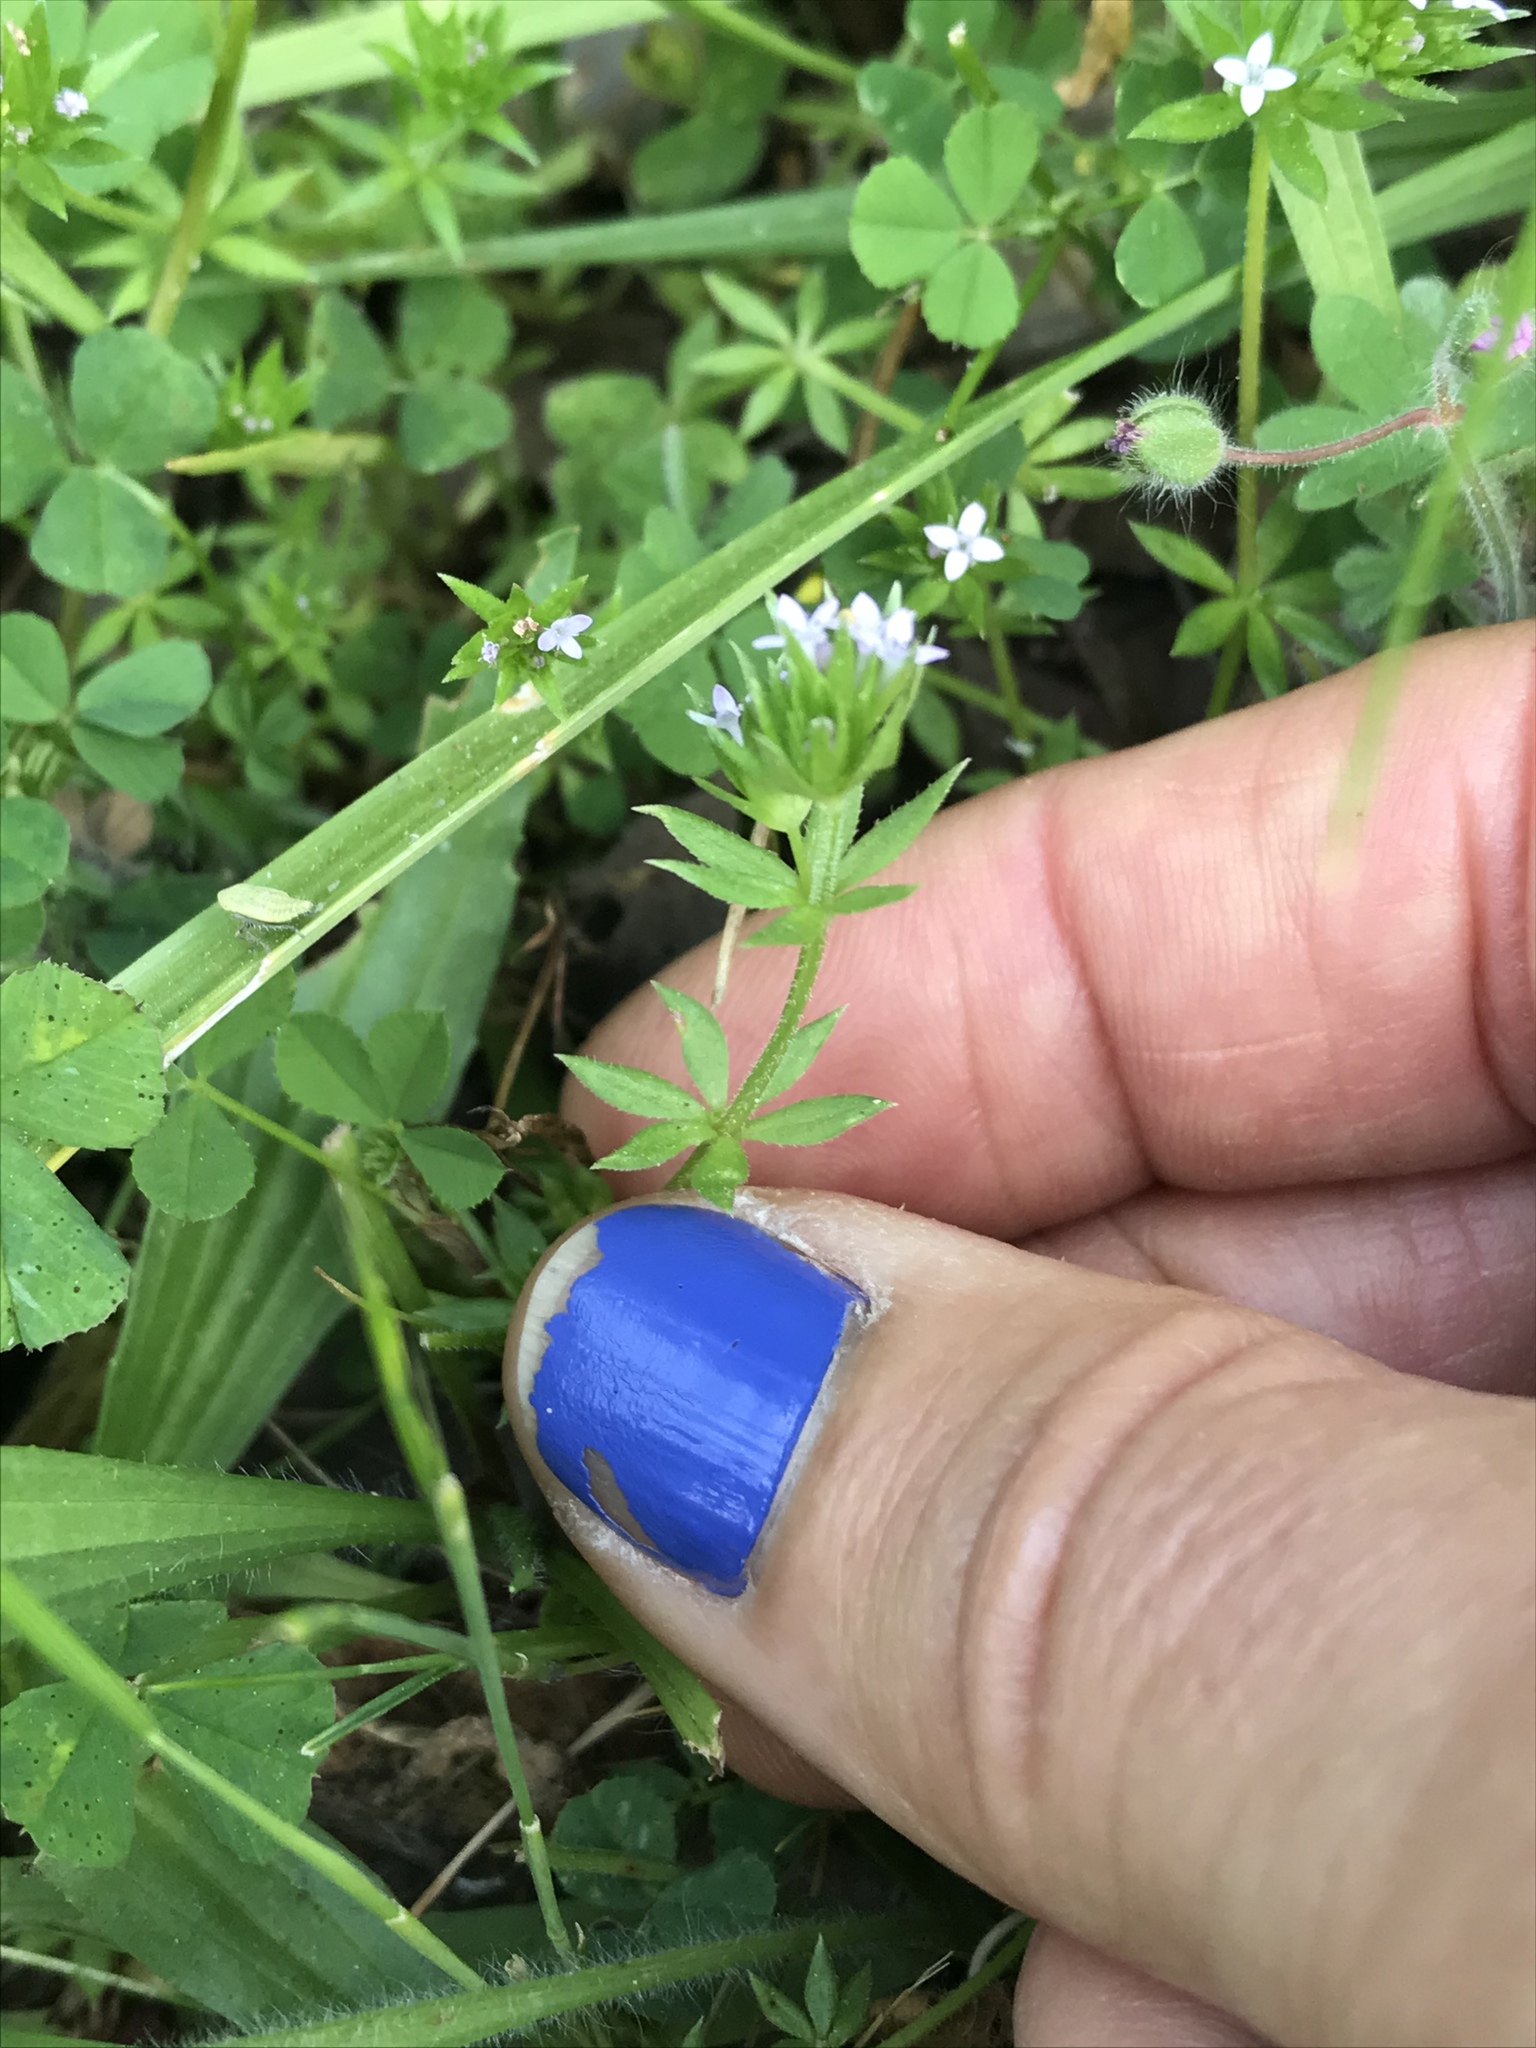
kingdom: Plantae
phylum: Tracheophyta
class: Magnoliopsida
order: Gentianales
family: Rubiaceae
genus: Sherardia
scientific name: Sherardia arvensis
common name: Field madder
